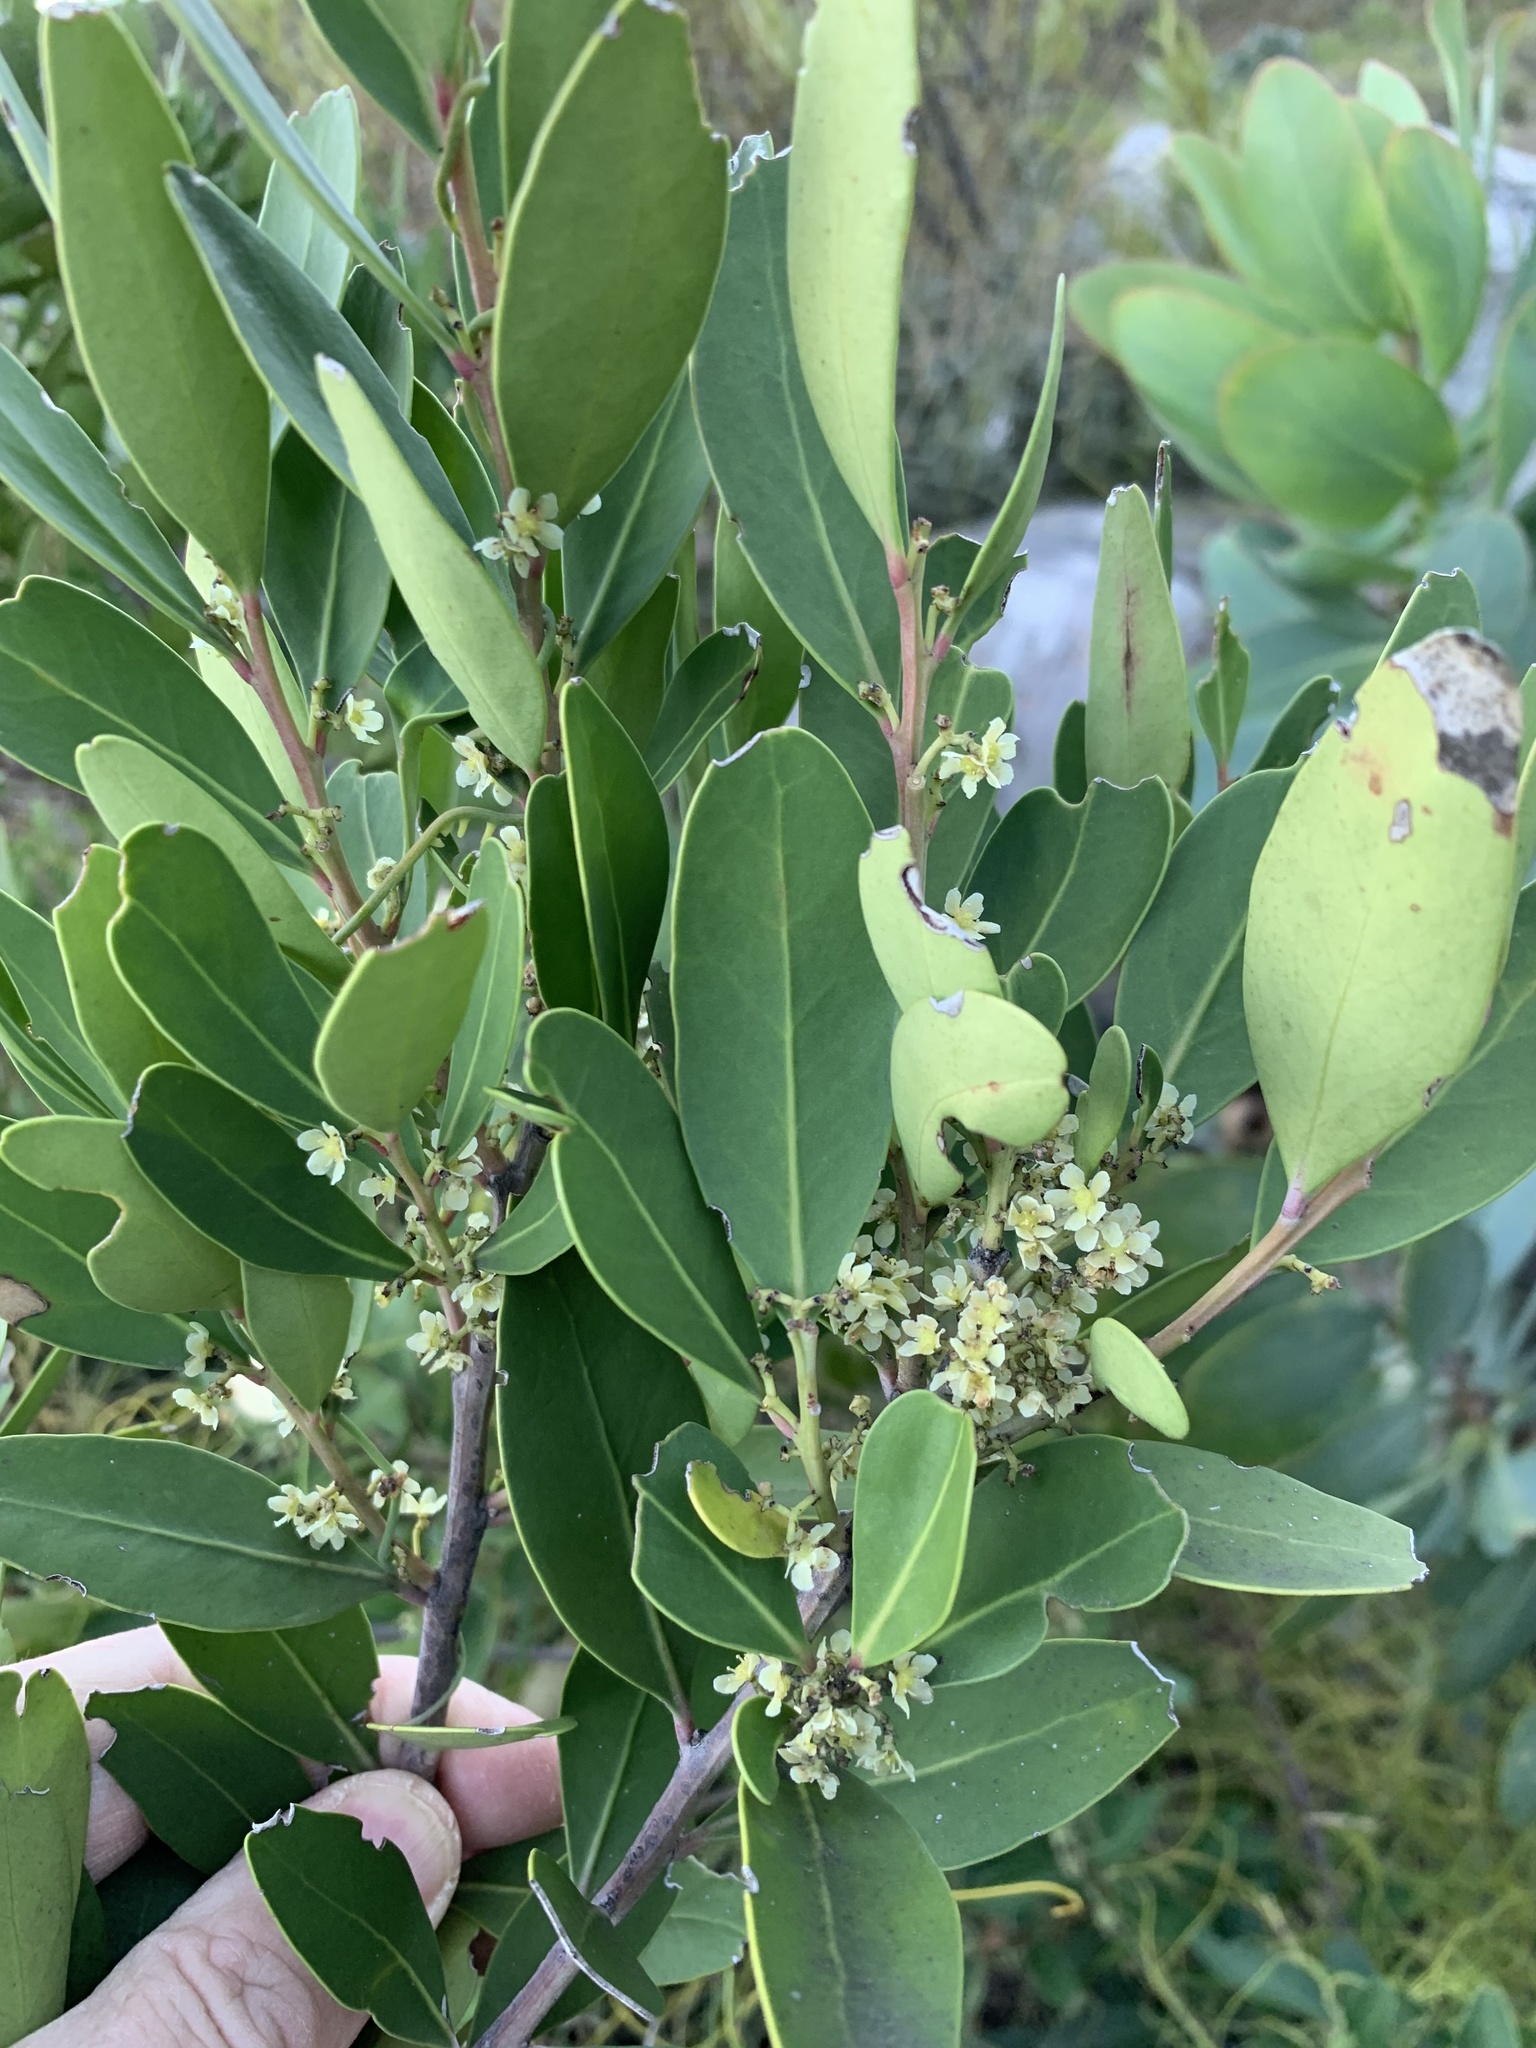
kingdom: Plantae
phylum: Tracheophyta
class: Magnoliopsida
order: Celastrales
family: Celastraceae
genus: Gymnosporia
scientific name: Gymnosporia laurina
